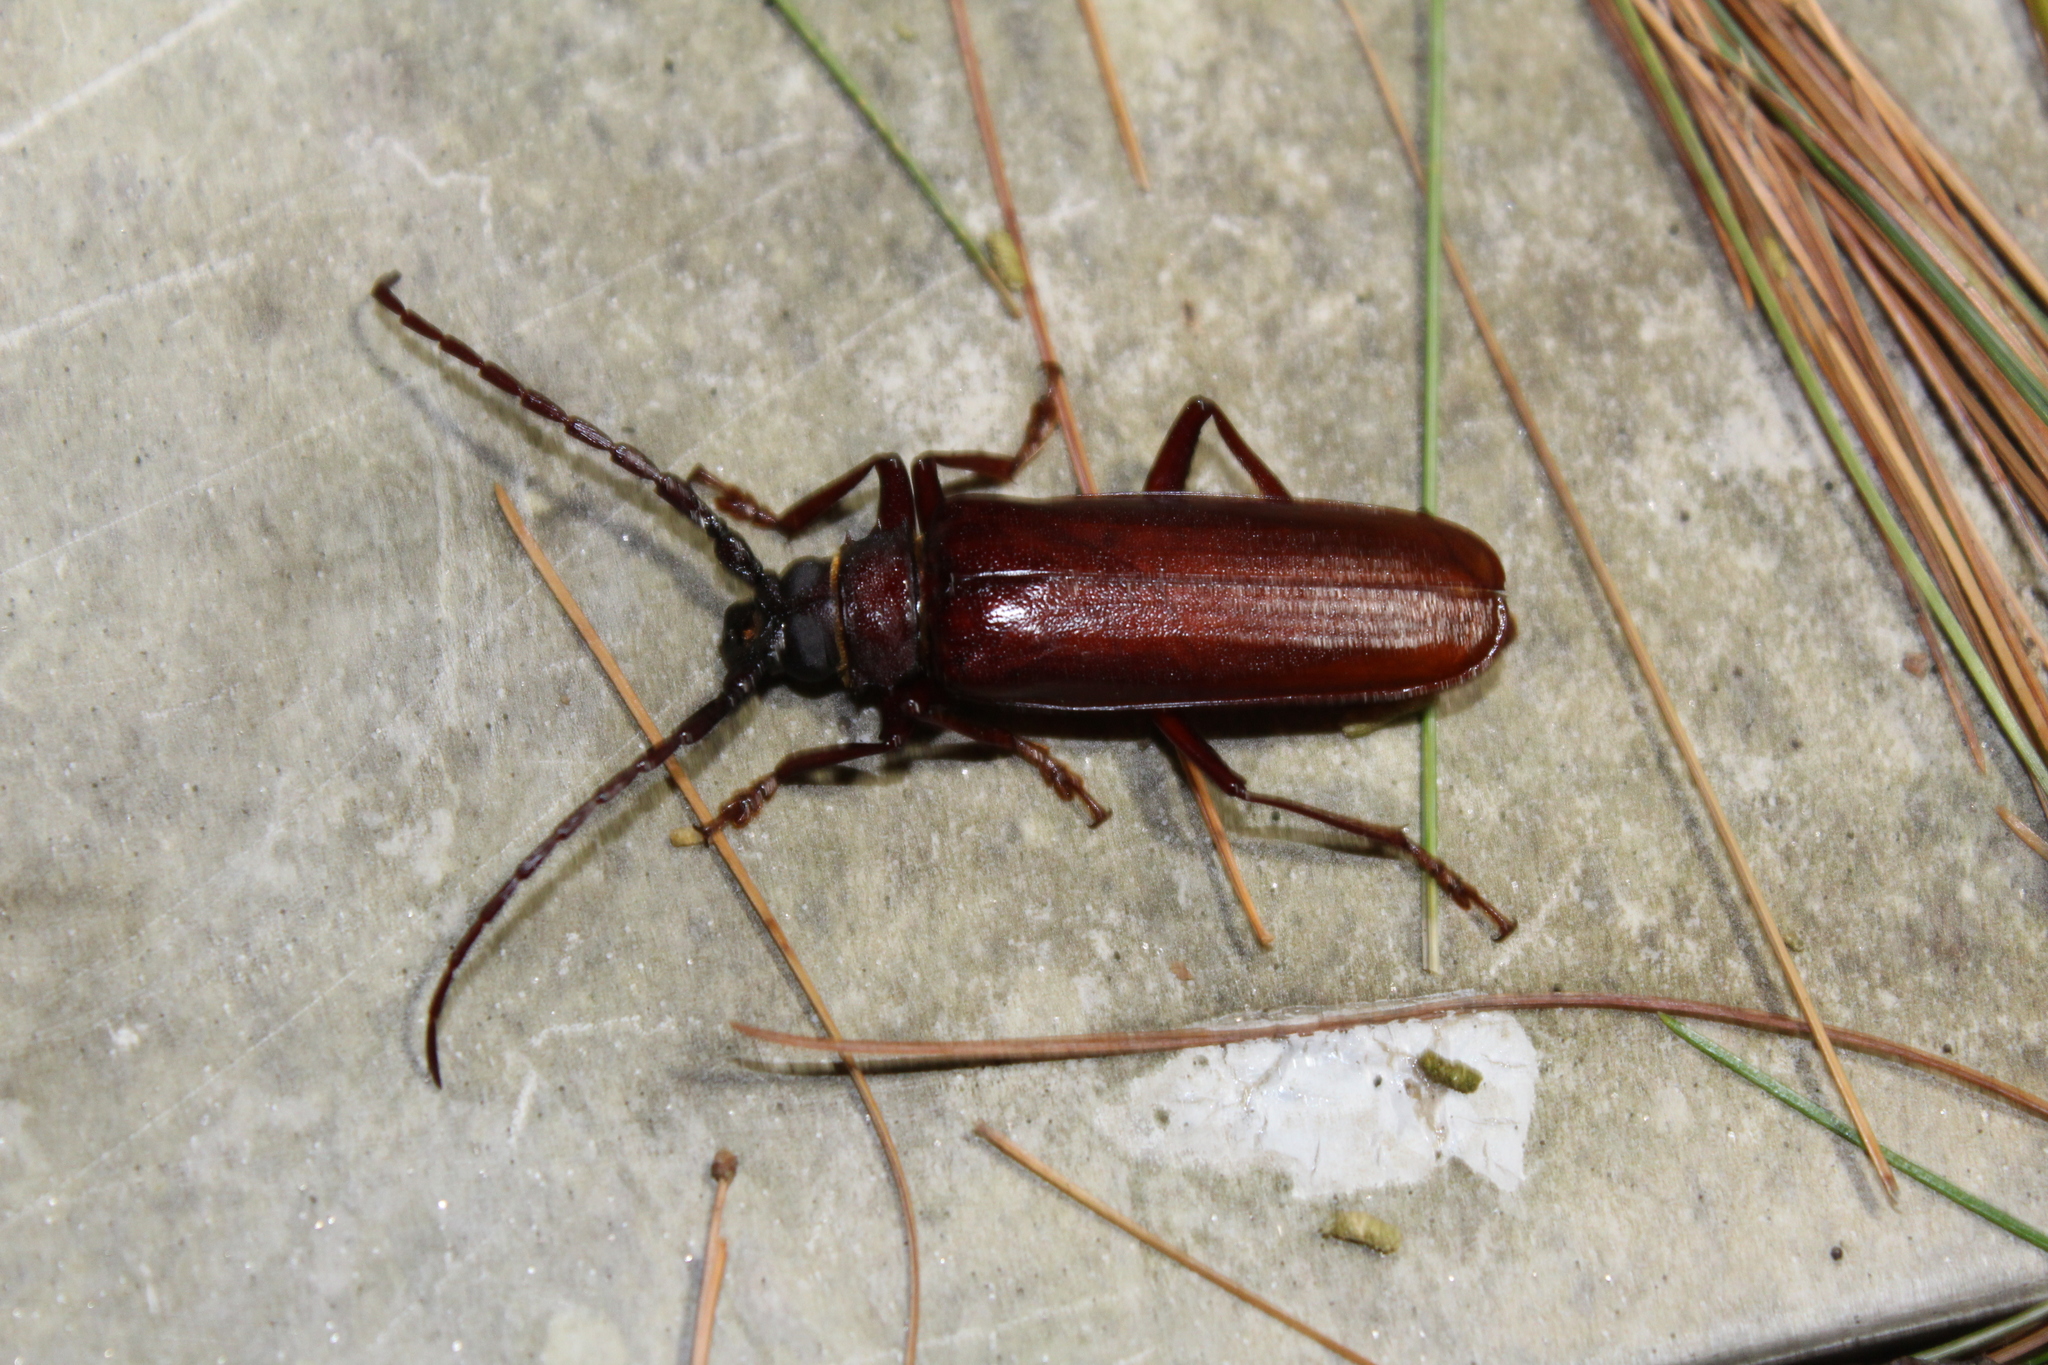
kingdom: Animalia
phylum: Arthropoda
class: Insecta
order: Coleoptera
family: Cerambycidae
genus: Orthosoma
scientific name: Orthosoma brunneum
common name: Brown prionid beetle
